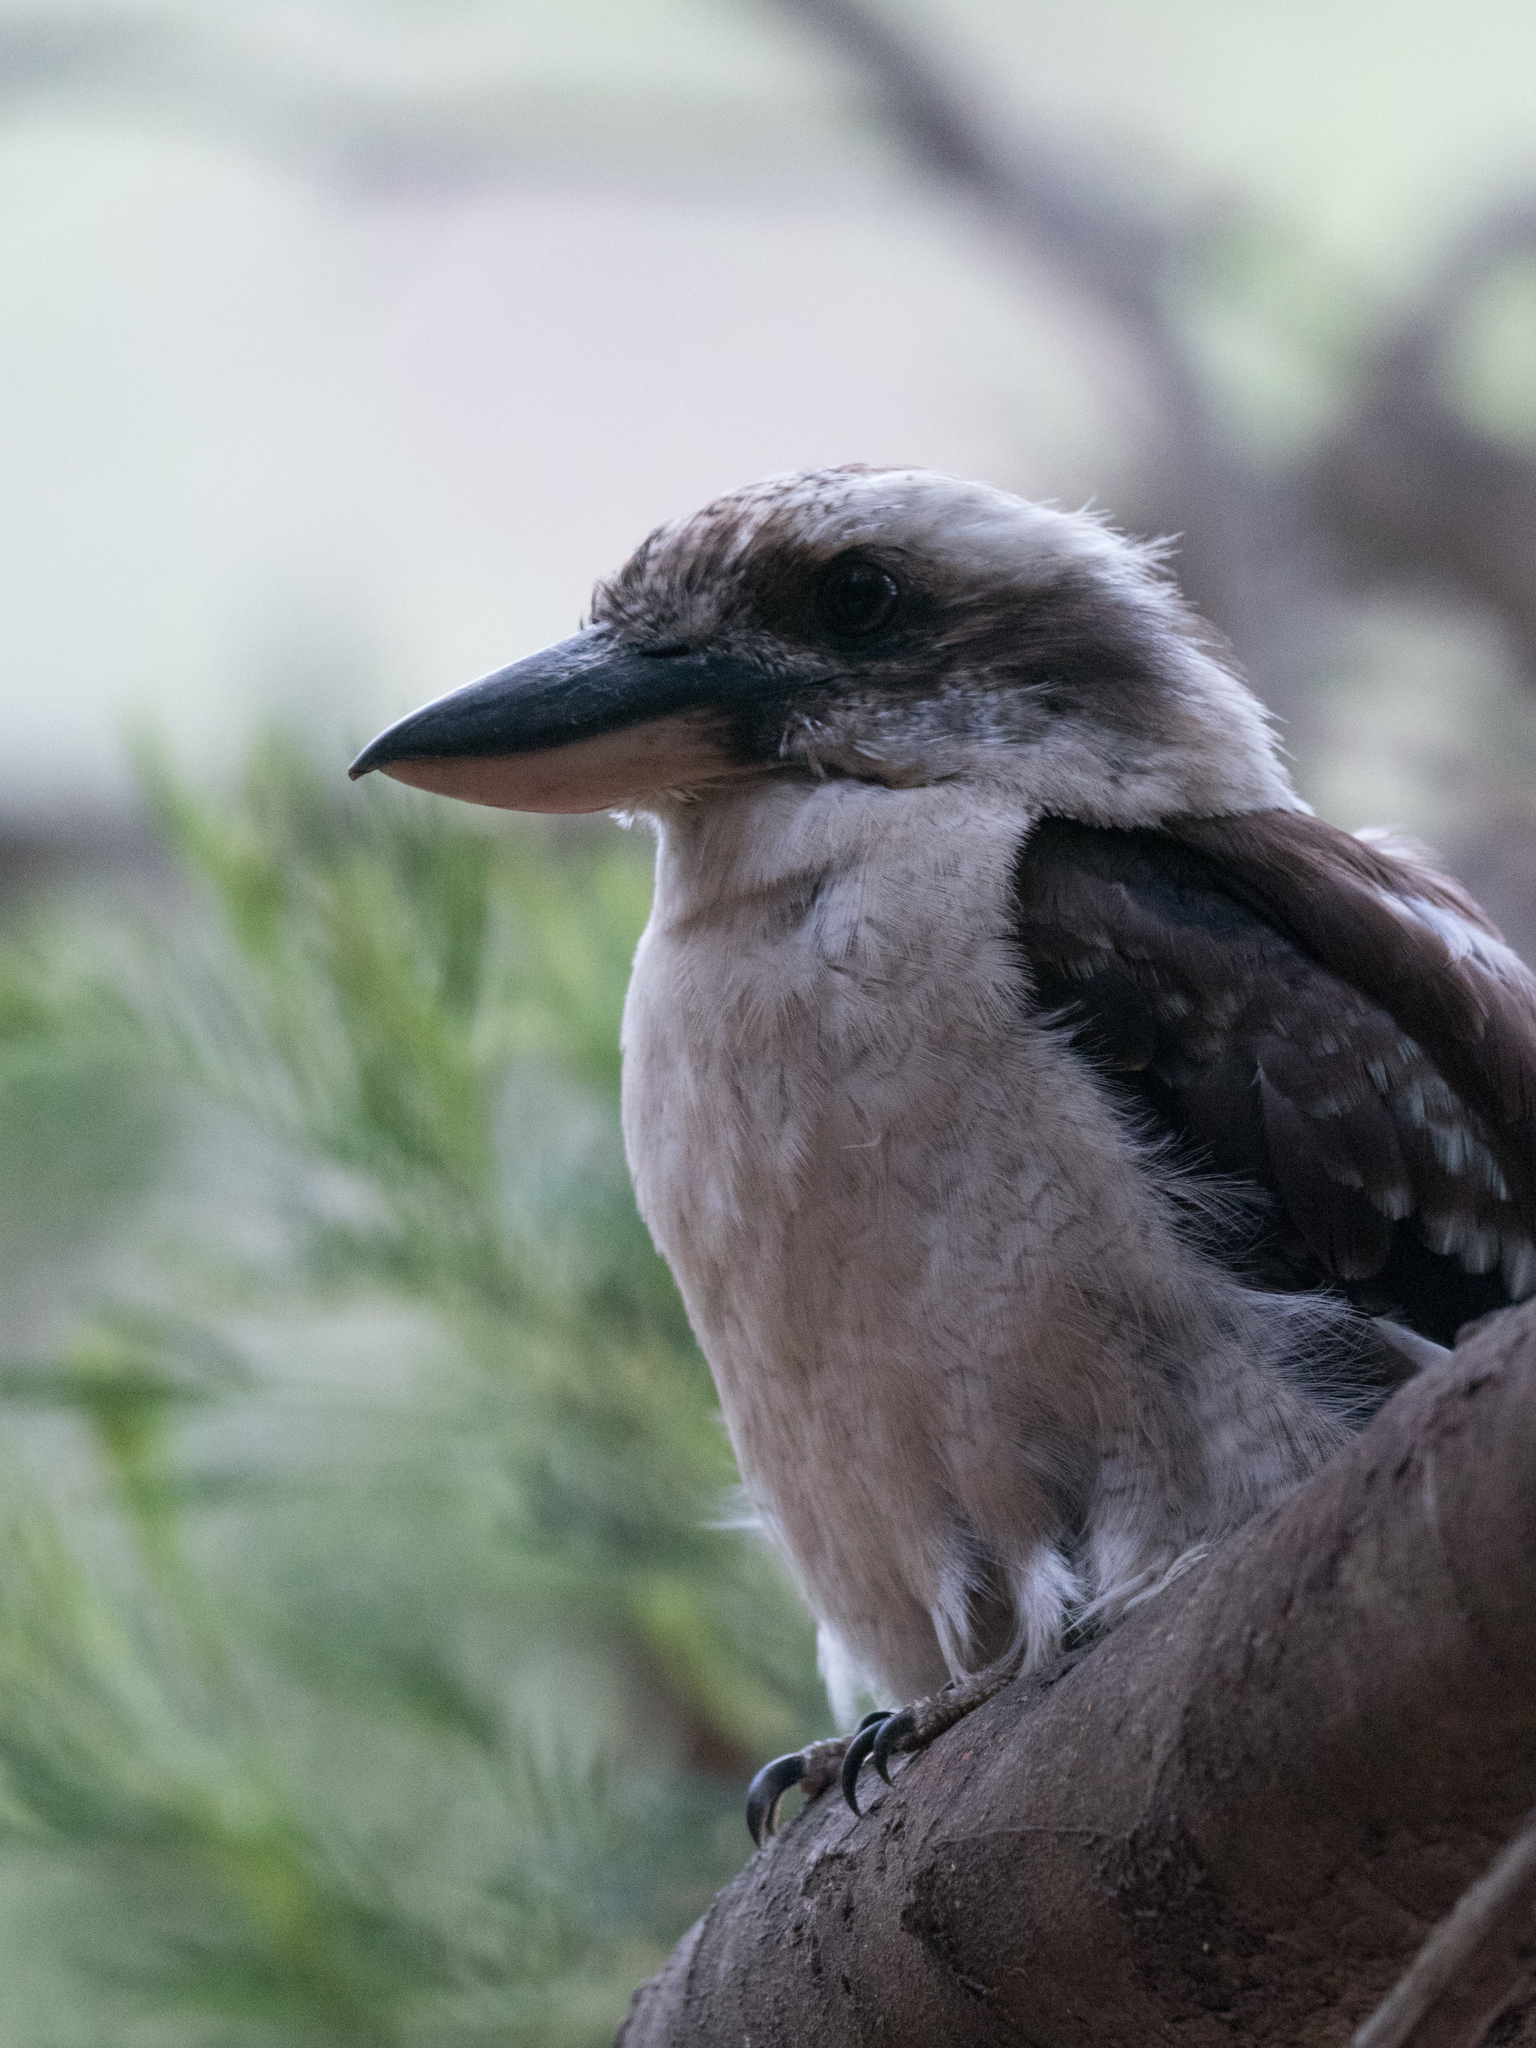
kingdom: Animalia
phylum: Chordata
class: Aves
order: Coraciiformes
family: Alcedinidae
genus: Dacelo
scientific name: Dacelo novaeguineae
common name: Laughing kookaburra
